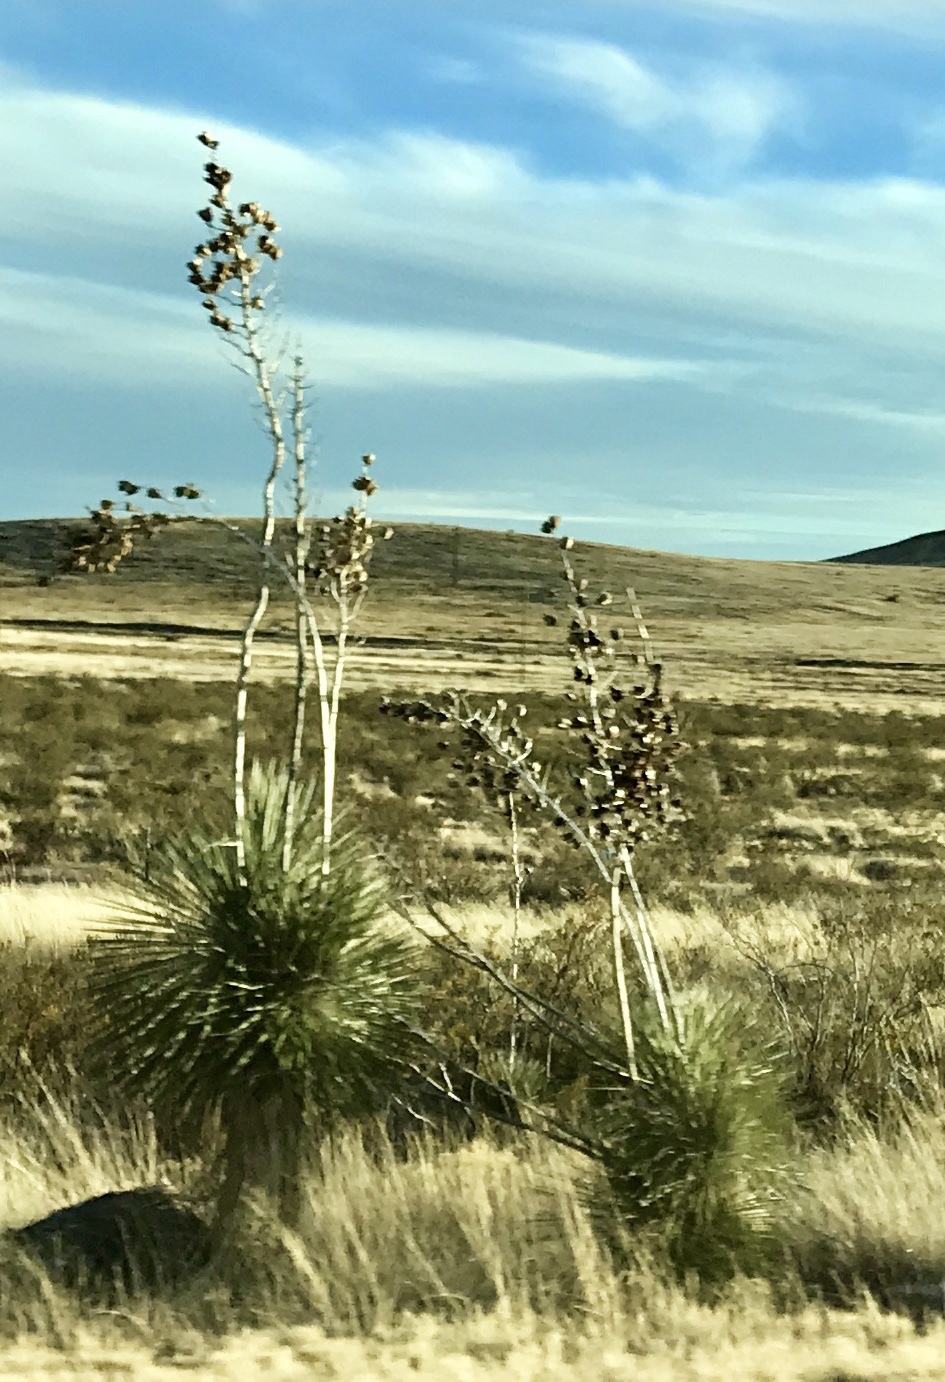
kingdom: Plantae
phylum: Tracheophyta
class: Liliopsida
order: Asparagales
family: Asparagaceae
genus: Yucca
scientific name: Yucca elata
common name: Palmella
